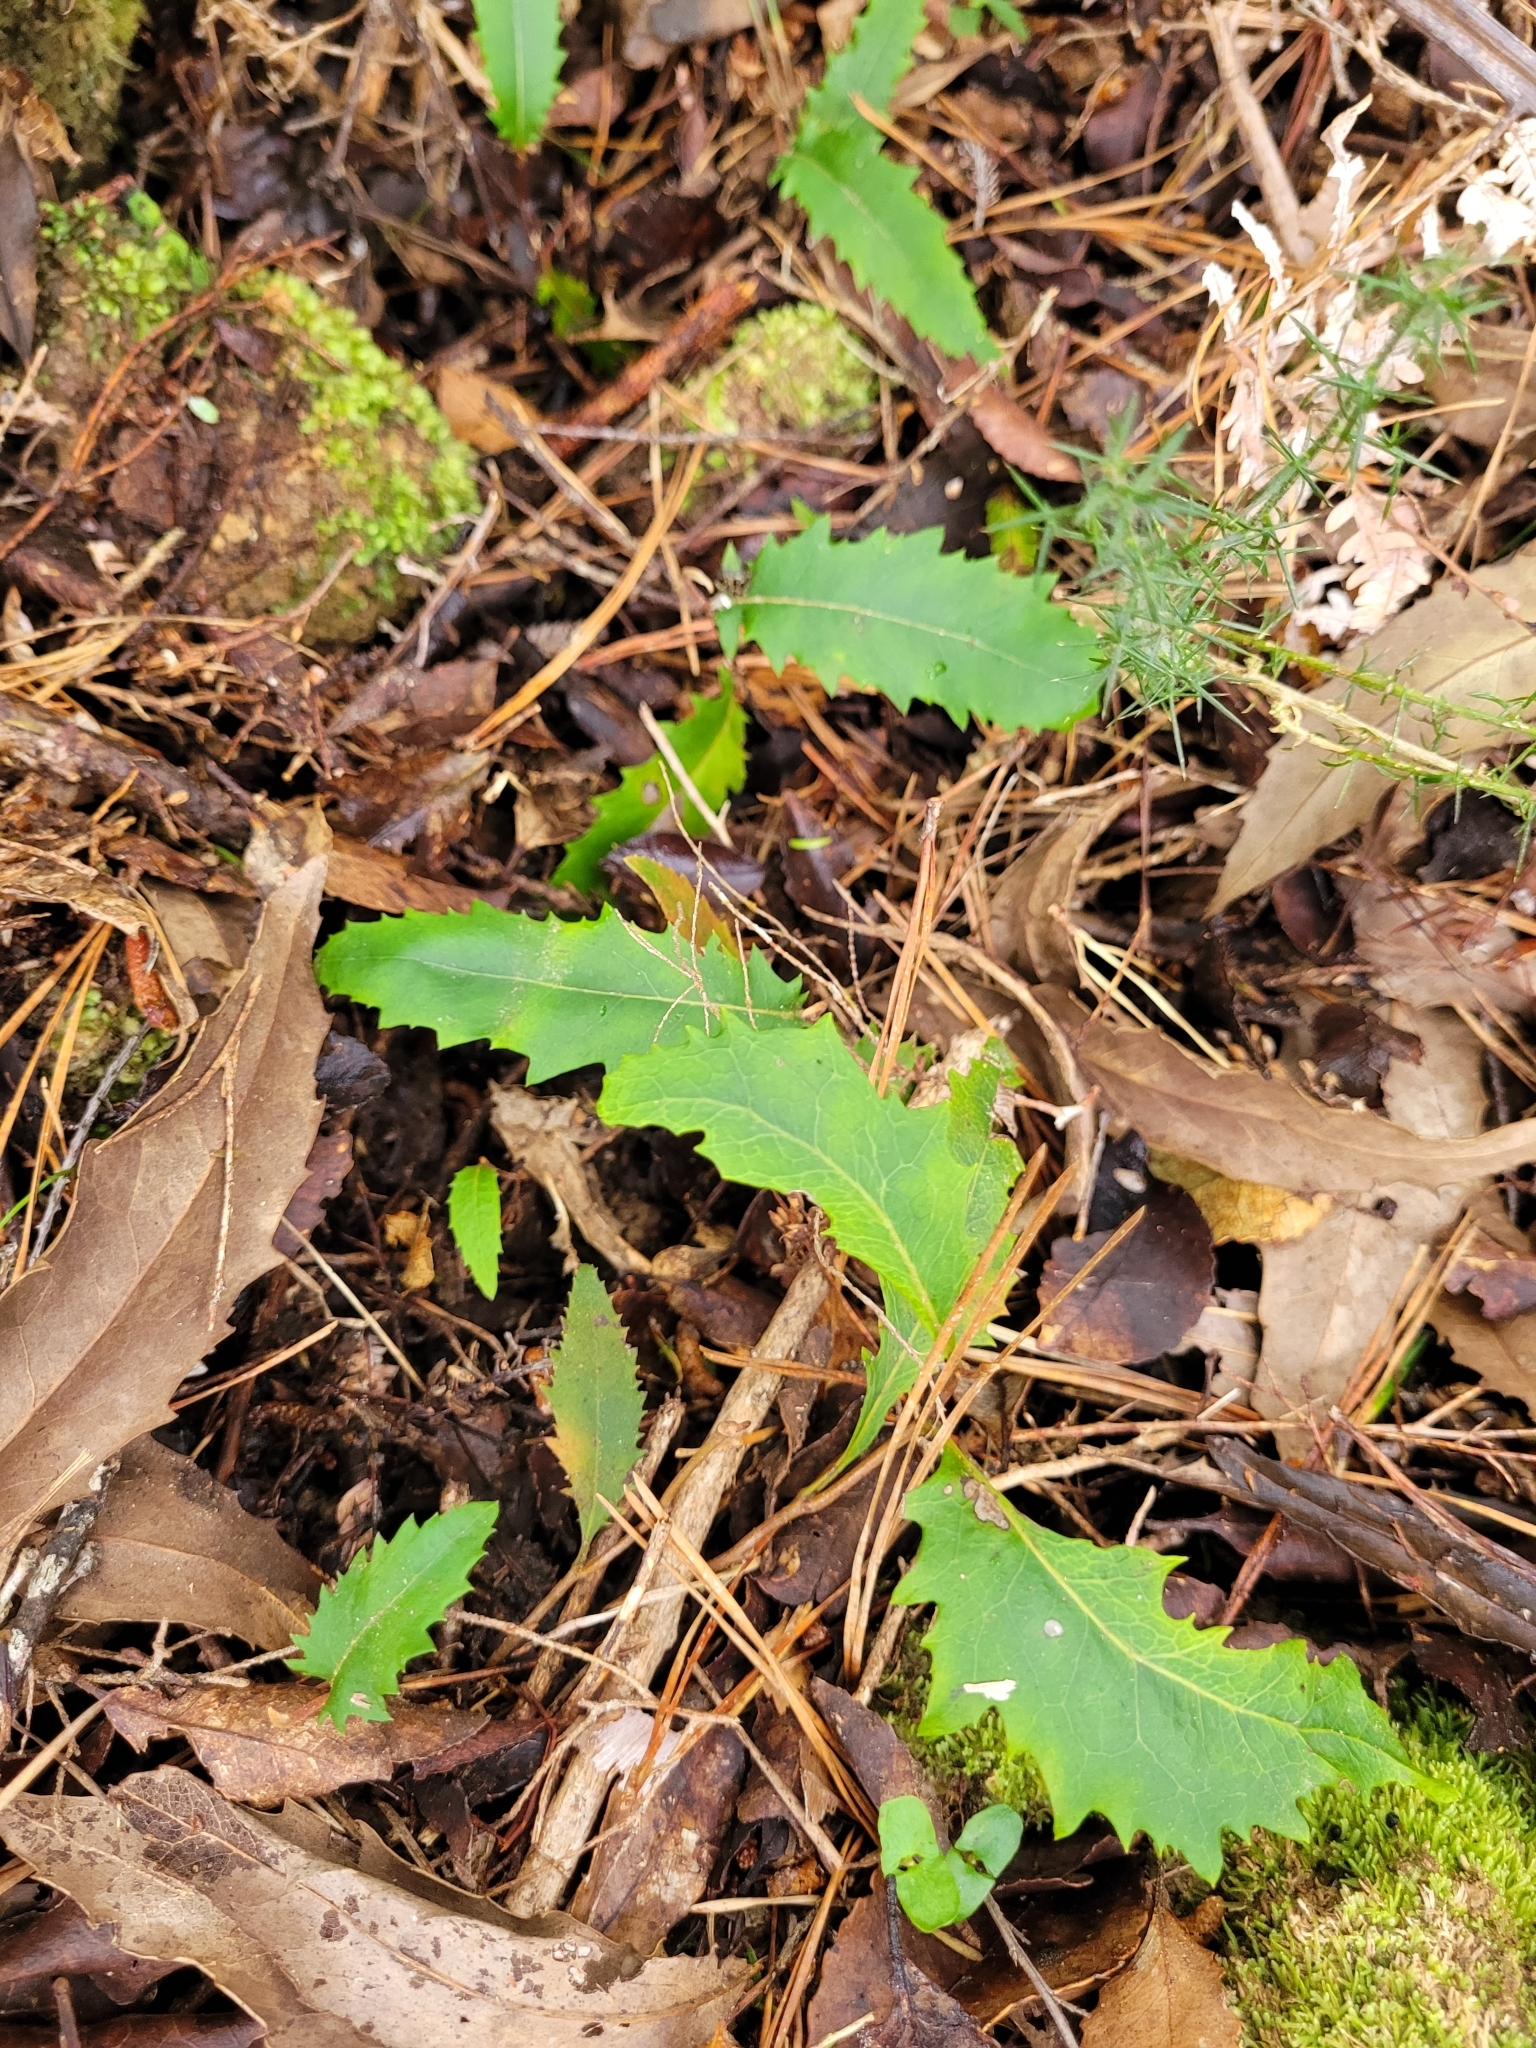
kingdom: Plantae
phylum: Tracheophyta
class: Magnoliopsida
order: Proteales
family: Proteaceae
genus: Lomatia
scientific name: Lomatia fraseri
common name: Forest lomatia
